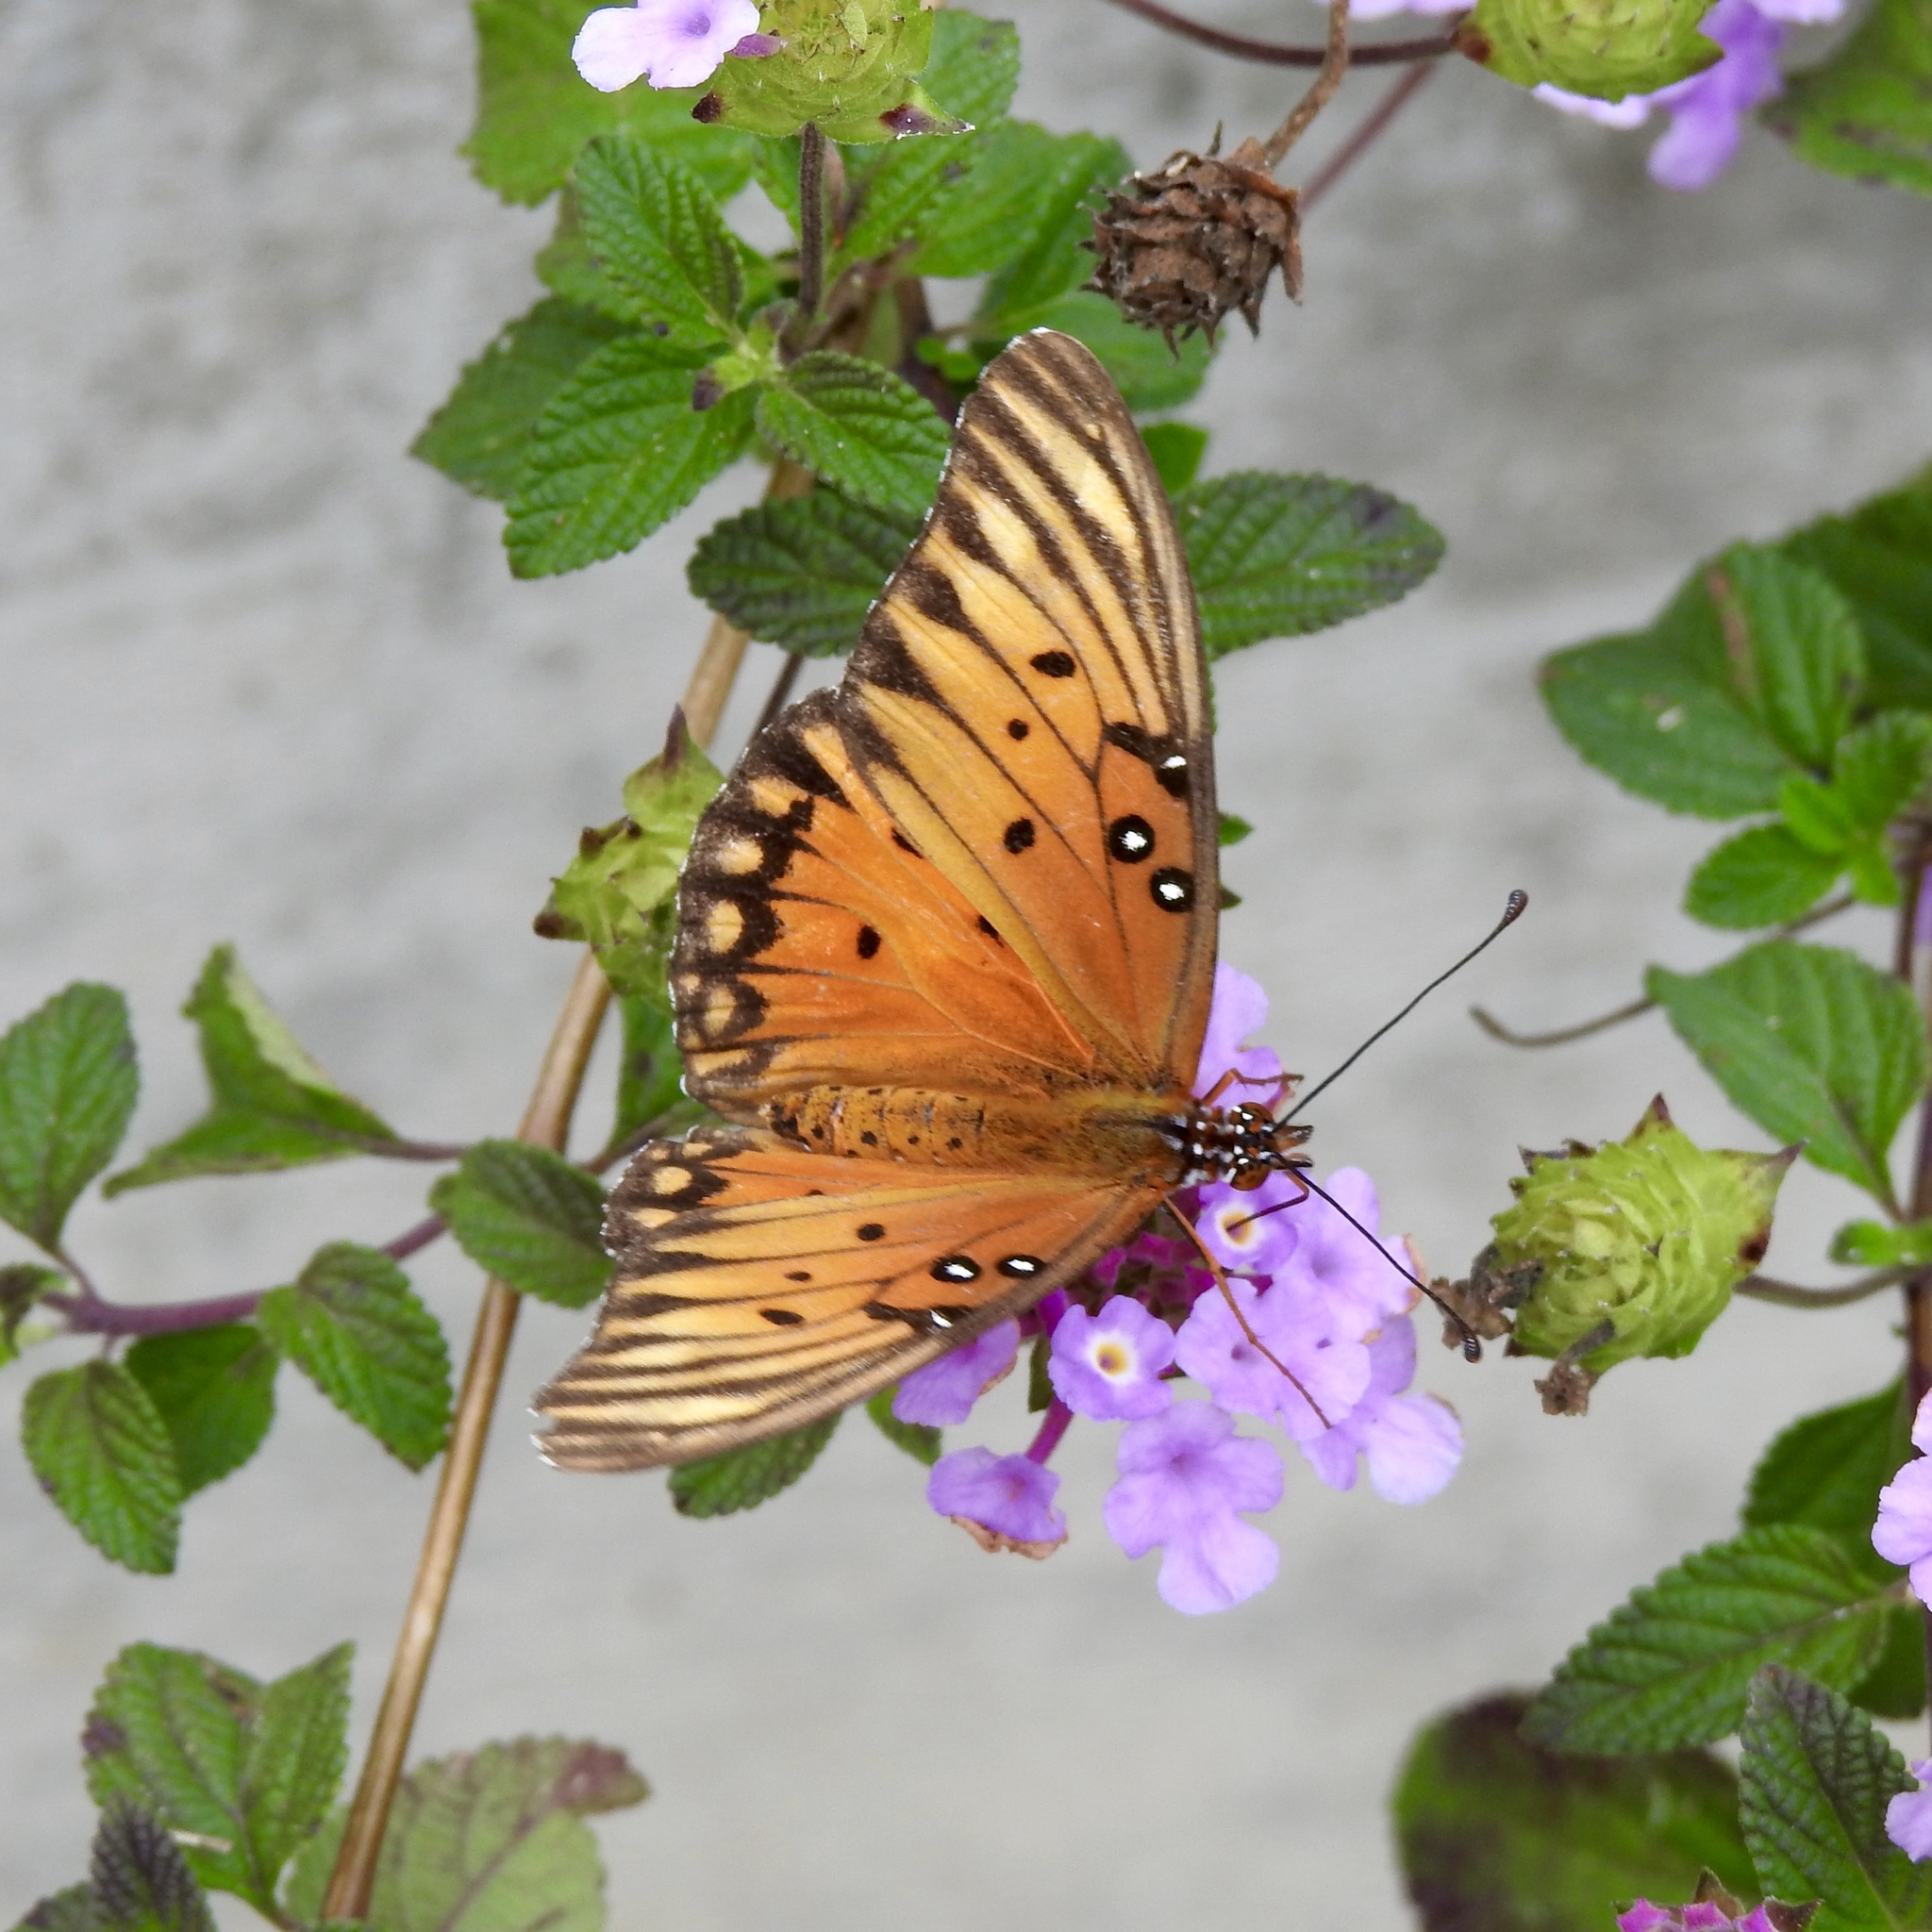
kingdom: Animalia
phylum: Arthropoda
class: Insecta
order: Lepidoptera
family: Nymphalidae
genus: Dione
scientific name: Dione vanillae
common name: Gulf fritillary
